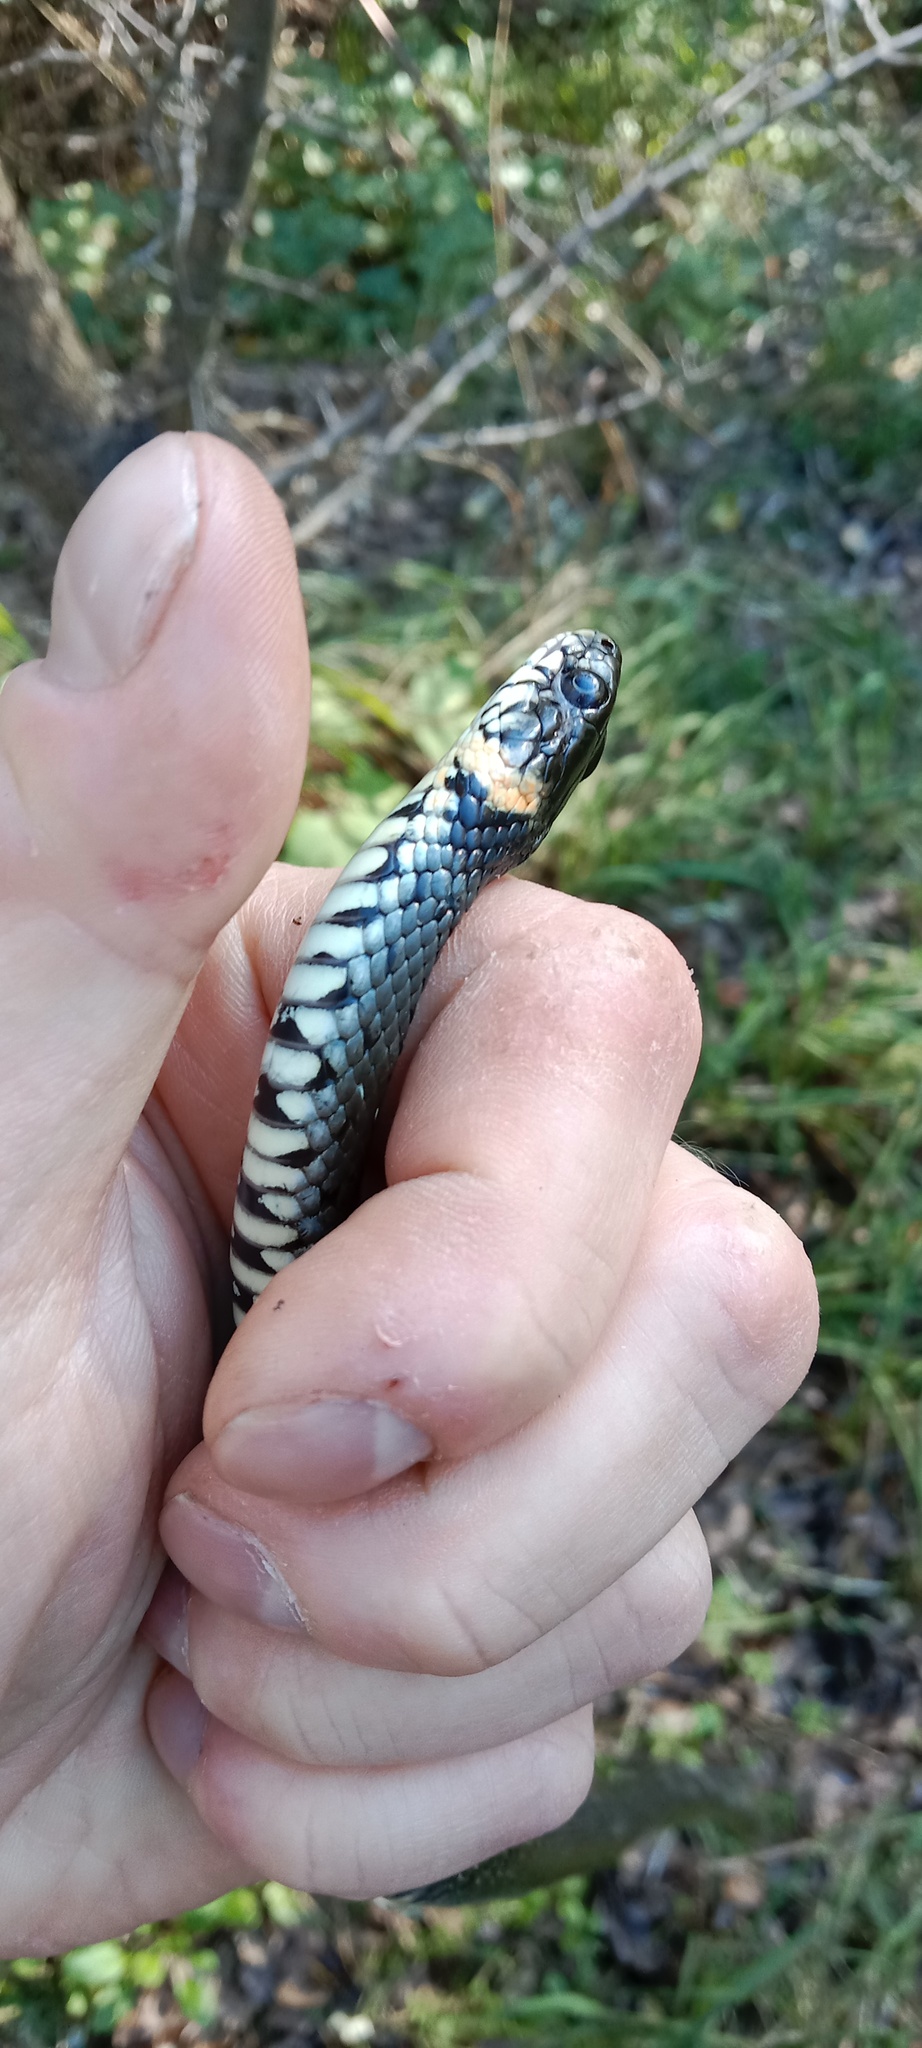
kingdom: Animalia
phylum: Chordata
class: Squamata
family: Colubridae
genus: Natrix
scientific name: Natrix natrix
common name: Grass snake
